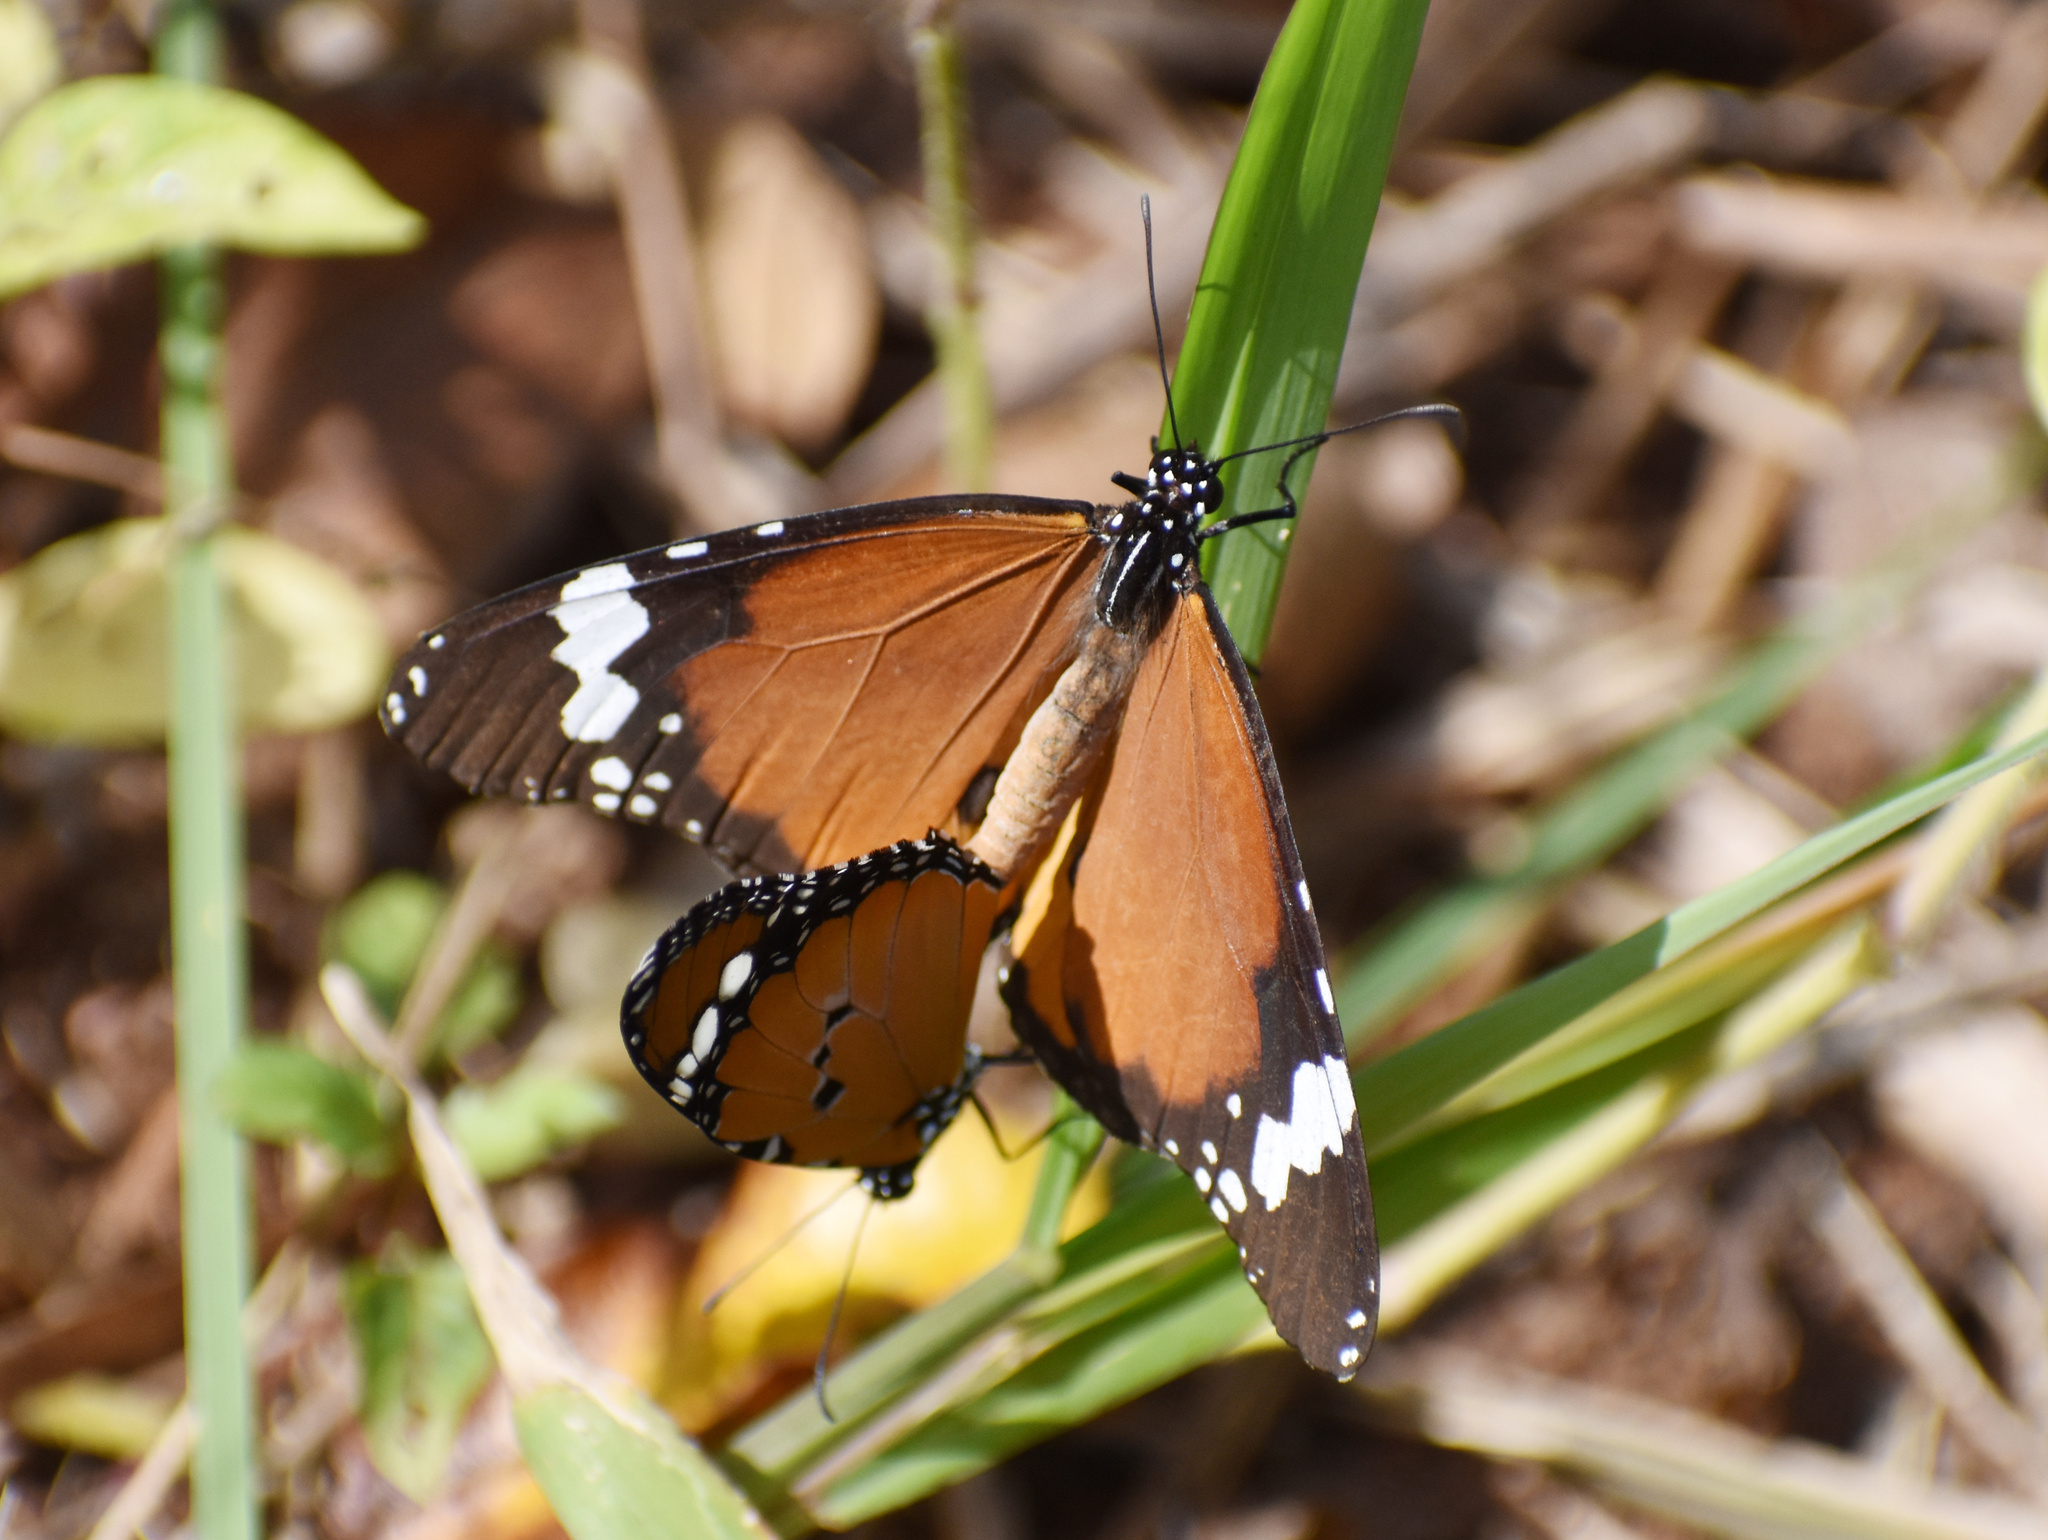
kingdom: Animalia
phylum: Arthropoda
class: Insecta
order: Lepidoptera
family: Nymphalidae
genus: Danaus
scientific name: Danaus chrysippus
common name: Plain tiger
